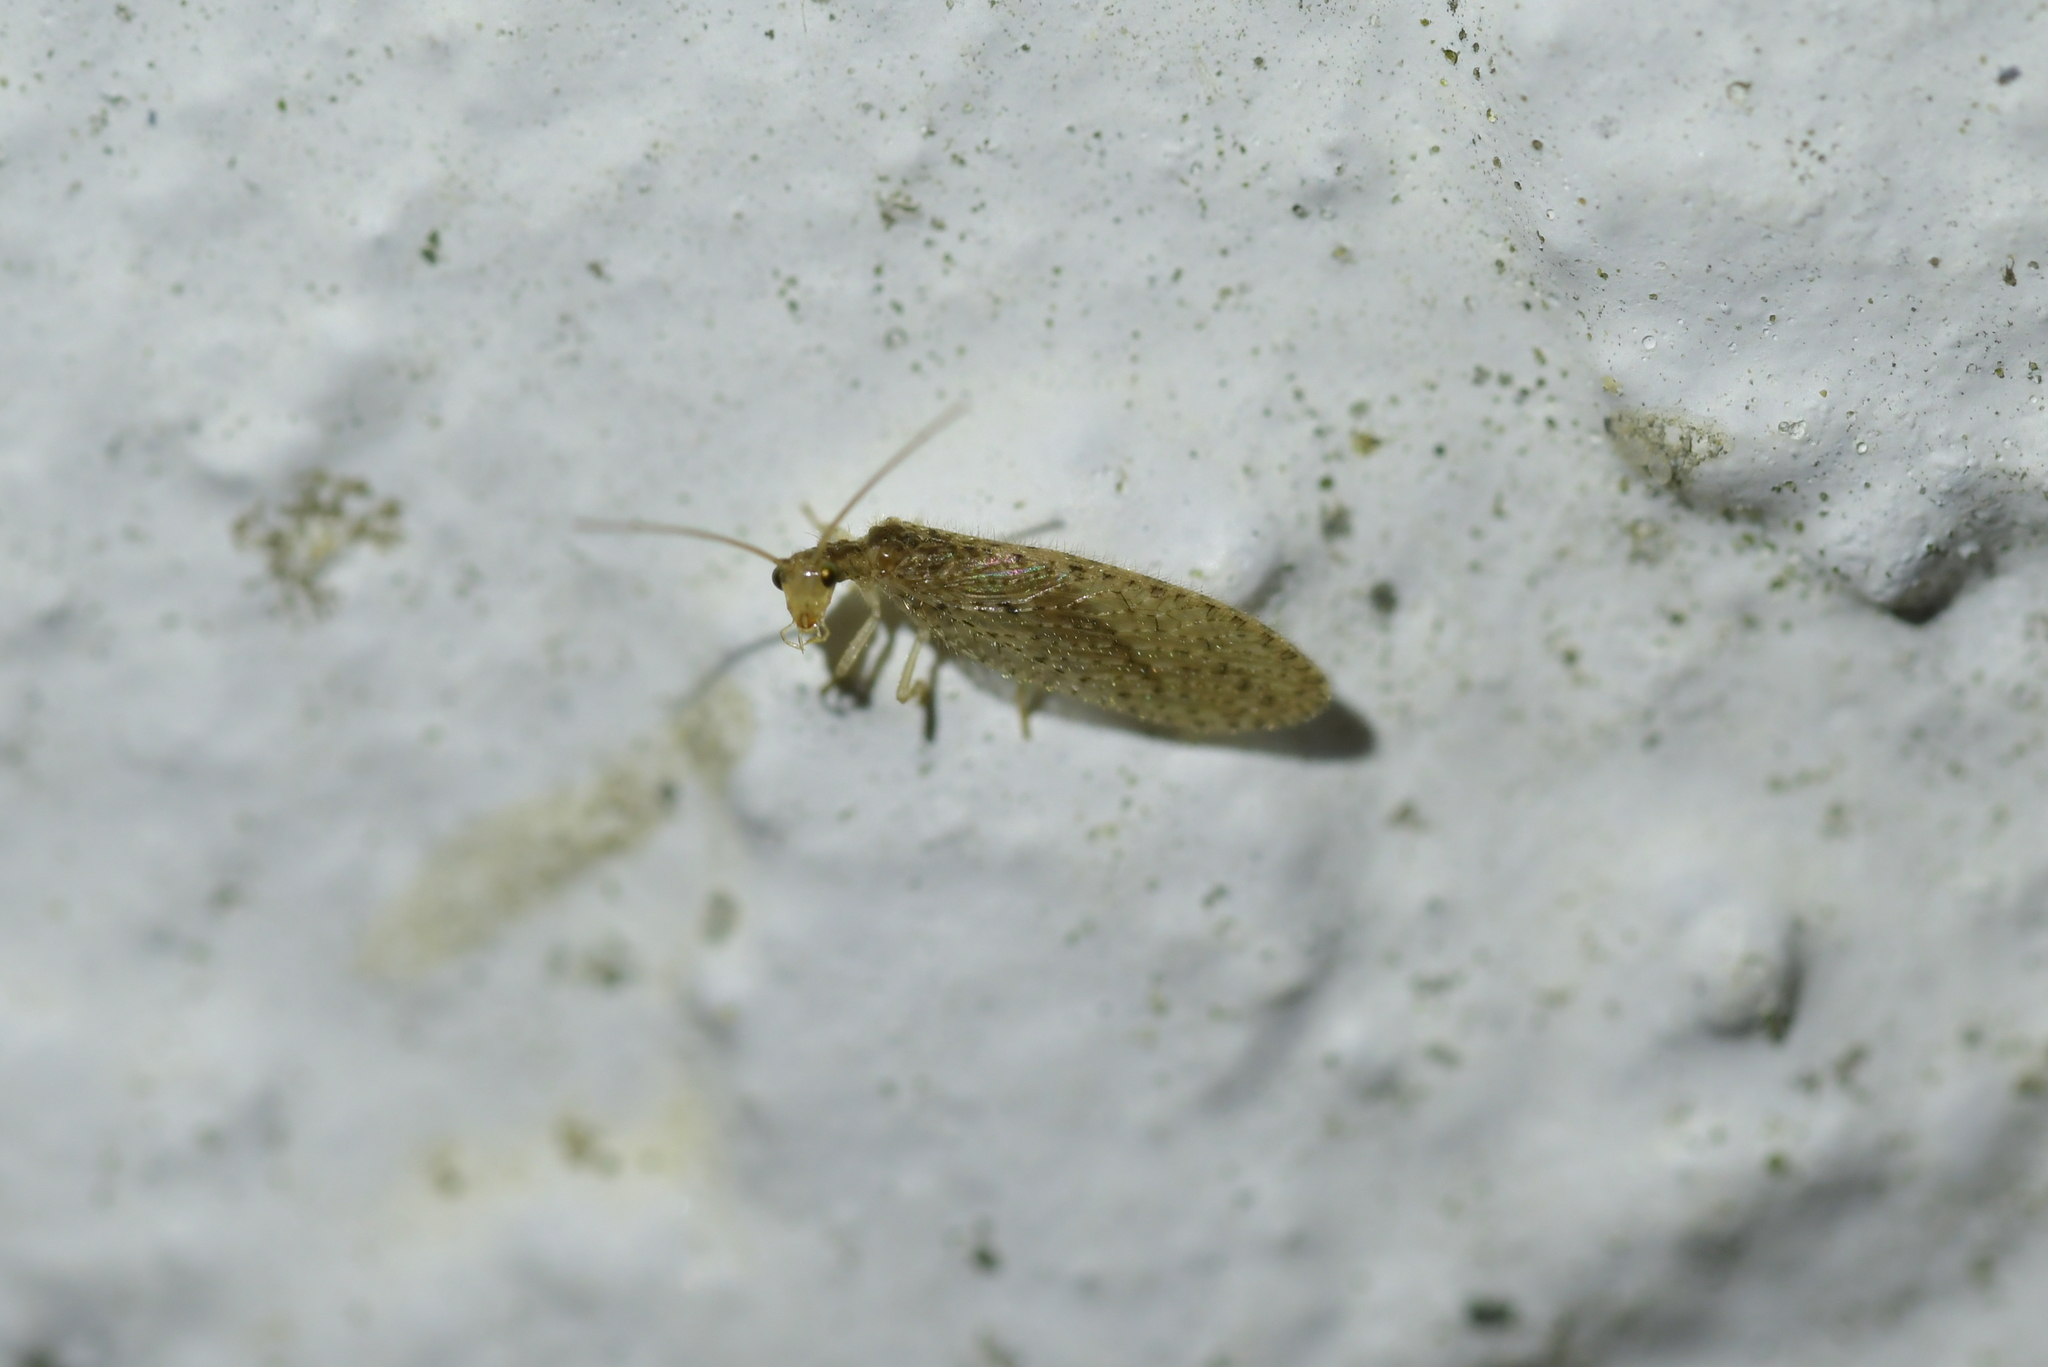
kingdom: Animalia
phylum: Arthropoda
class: Insecta
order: Neuroptera
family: Hemerobiidae
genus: Micromus
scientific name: Micromus tasmaniae
